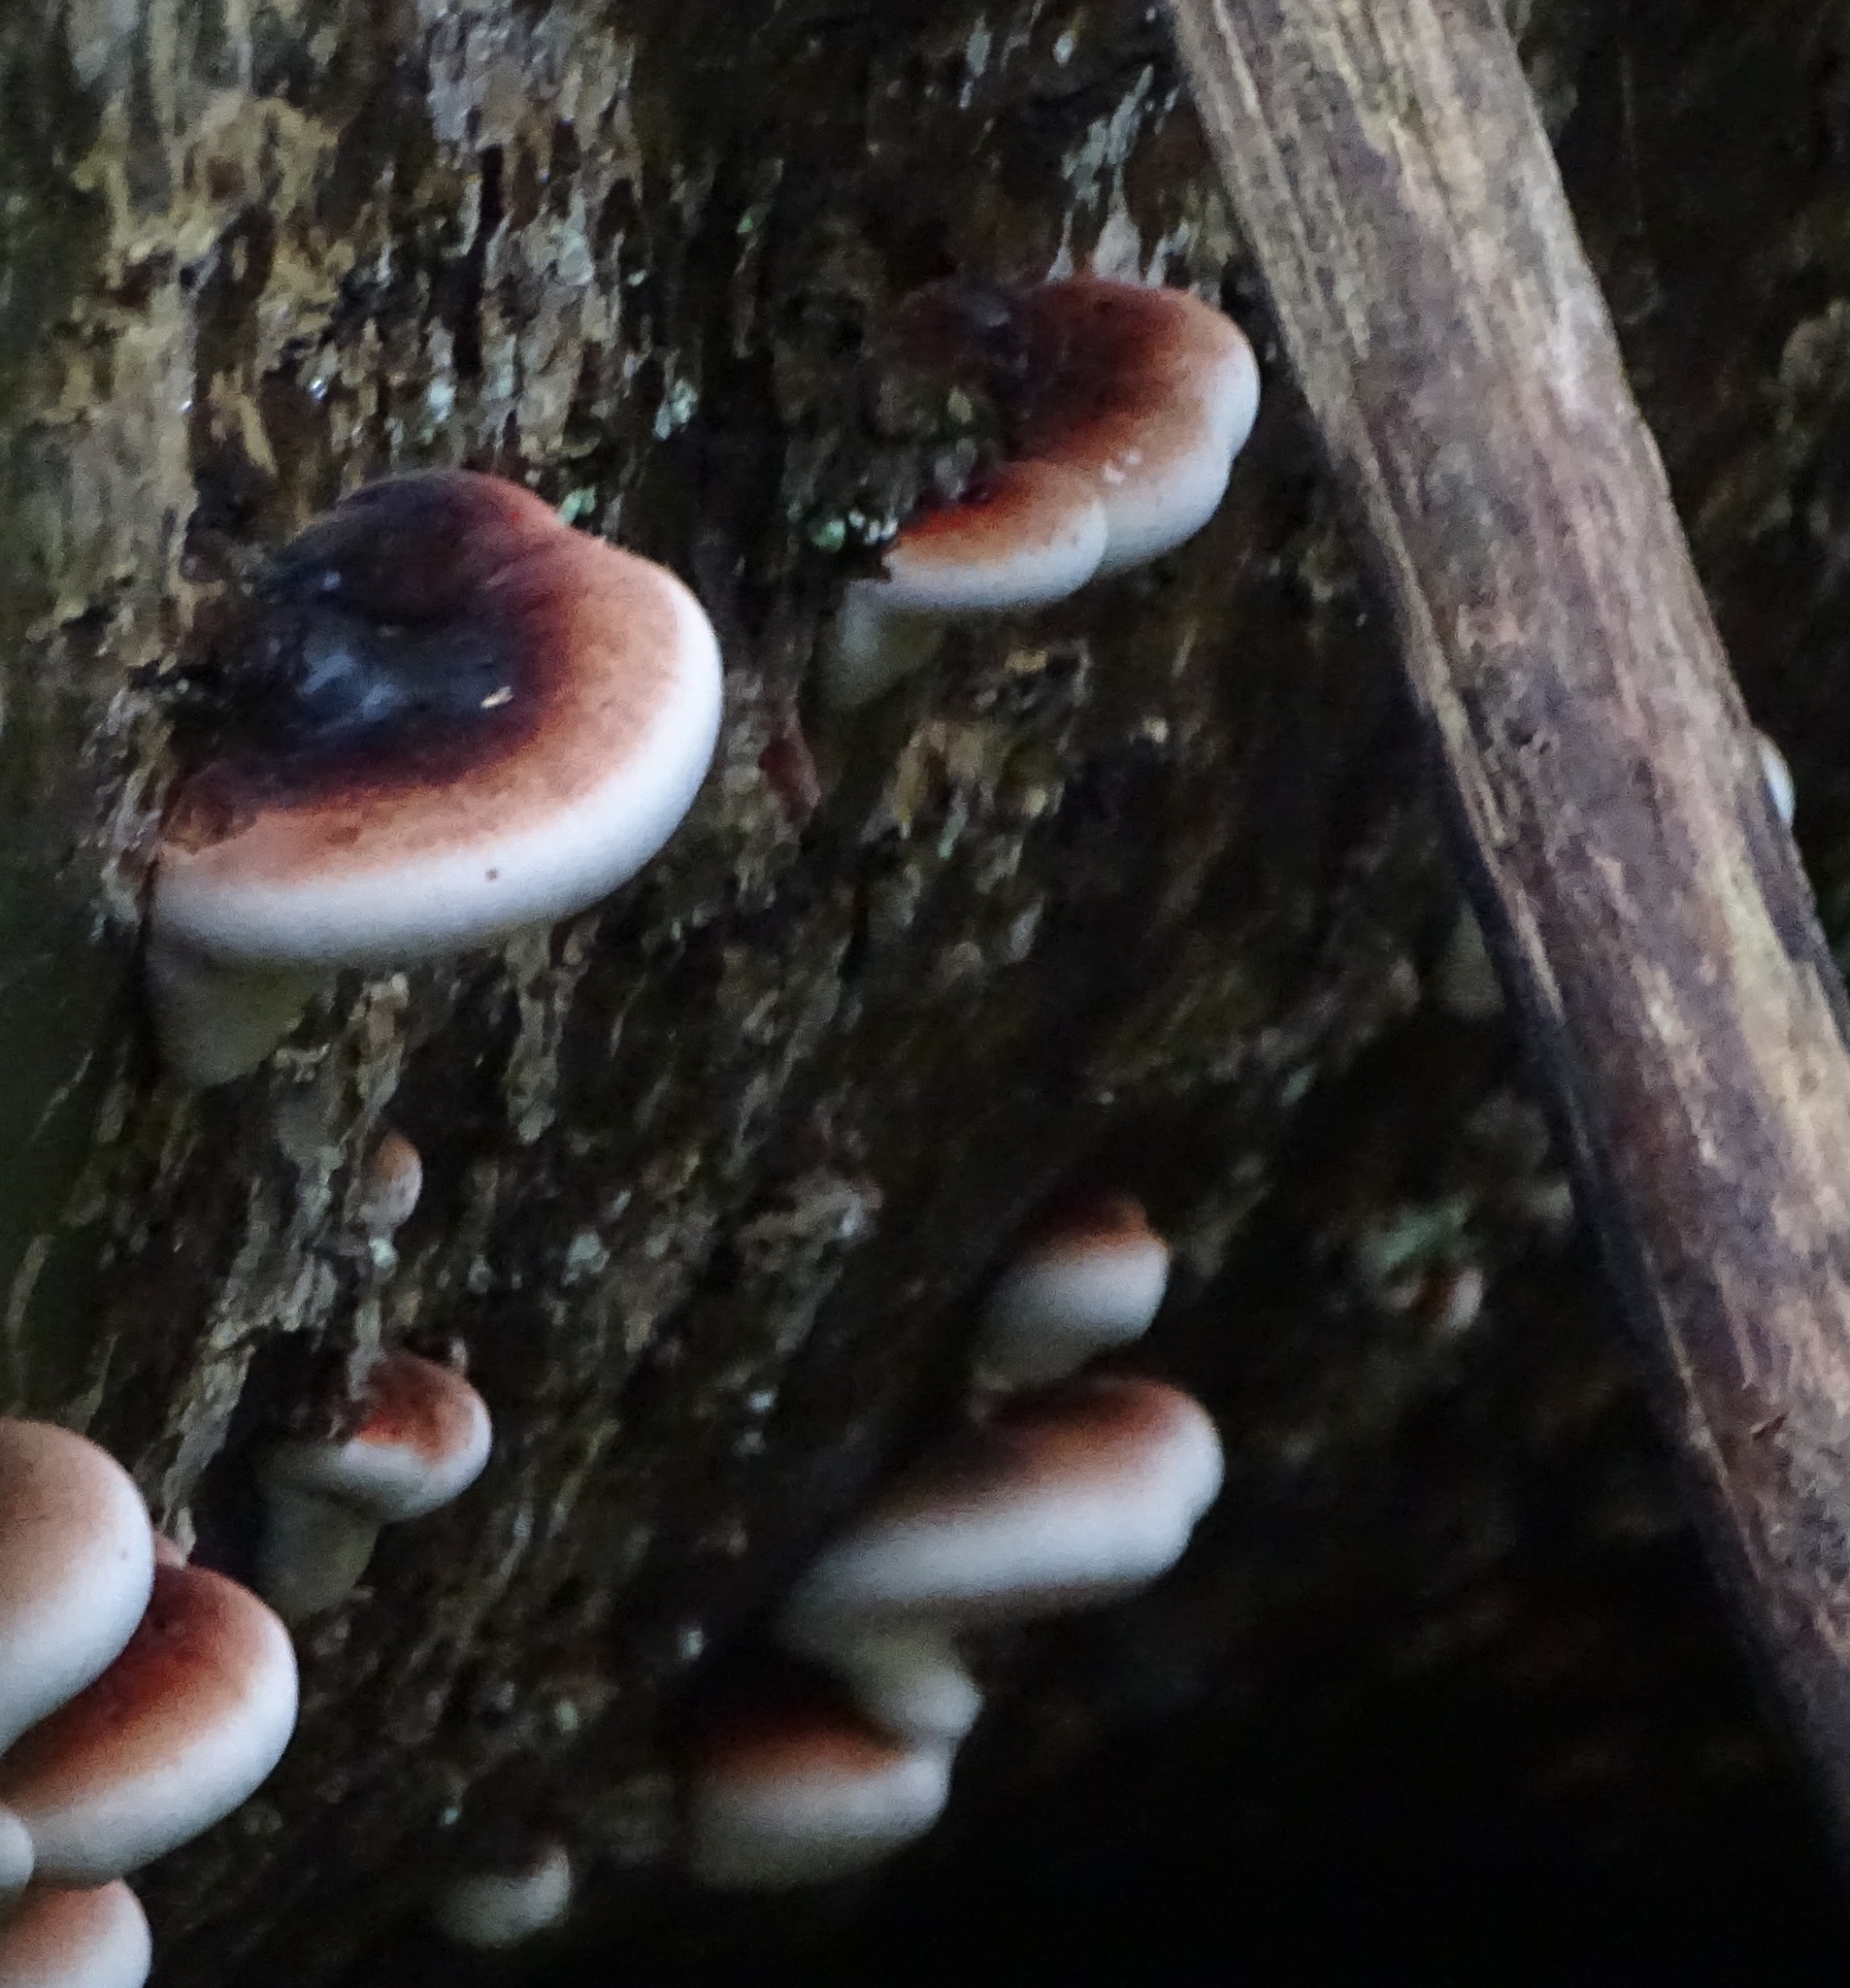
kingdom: Fungi
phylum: Basidiomycota
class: Agaricomycetes
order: Polyporales
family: Ischnodermataceae
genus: Ischnoderma
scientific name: Ischnoderma resinosum
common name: Resinous polypore
